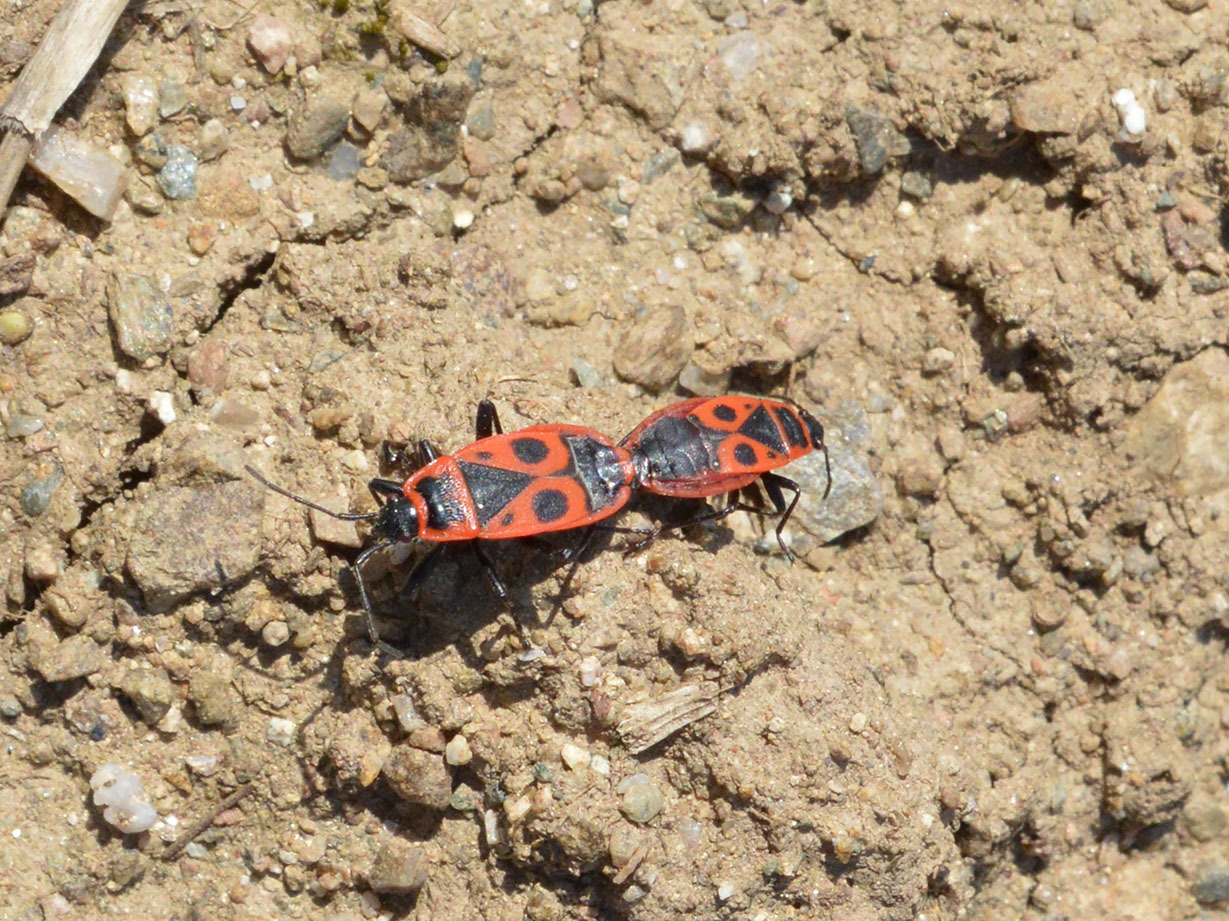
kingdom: Animalia
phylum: Arthropoda
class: Insecta
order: Hemiptera
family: Pyrrhocoridae
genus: Pyrrhocoris
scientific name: Pyrrhocoris apterus
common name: Firebug
